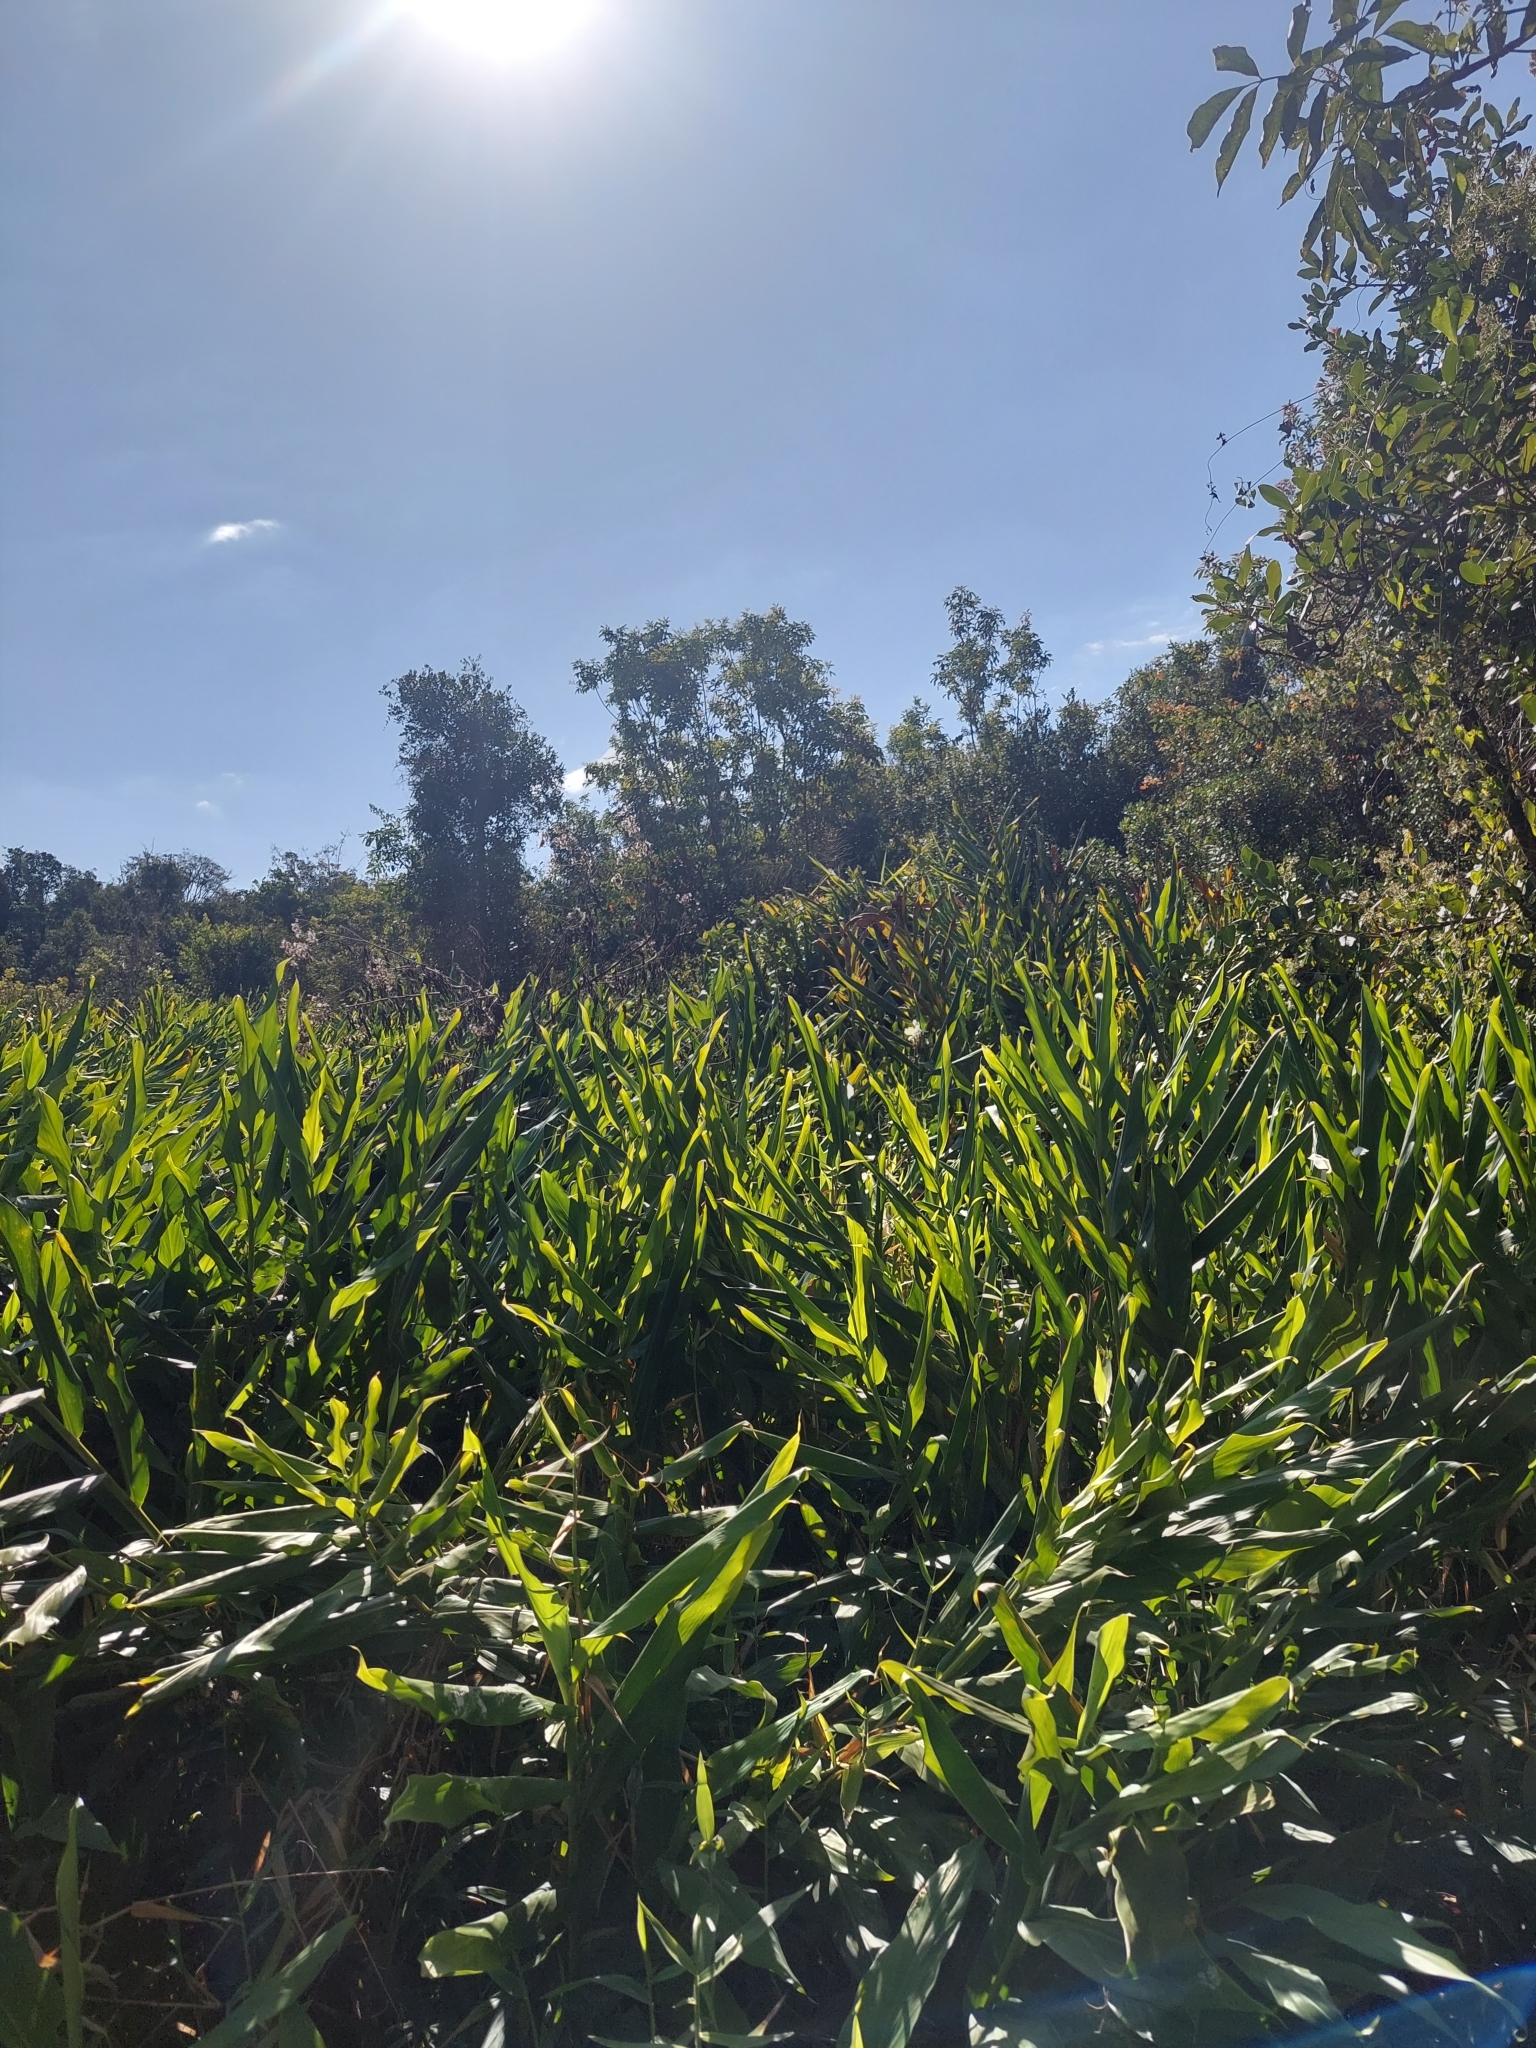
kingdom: Plantae
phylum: Tracheophyta
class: Liliopsida
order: Zingiberales
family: Zingiberaceae
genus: Hedychium
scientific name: Hedychium coronarium
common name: White garland-lily
